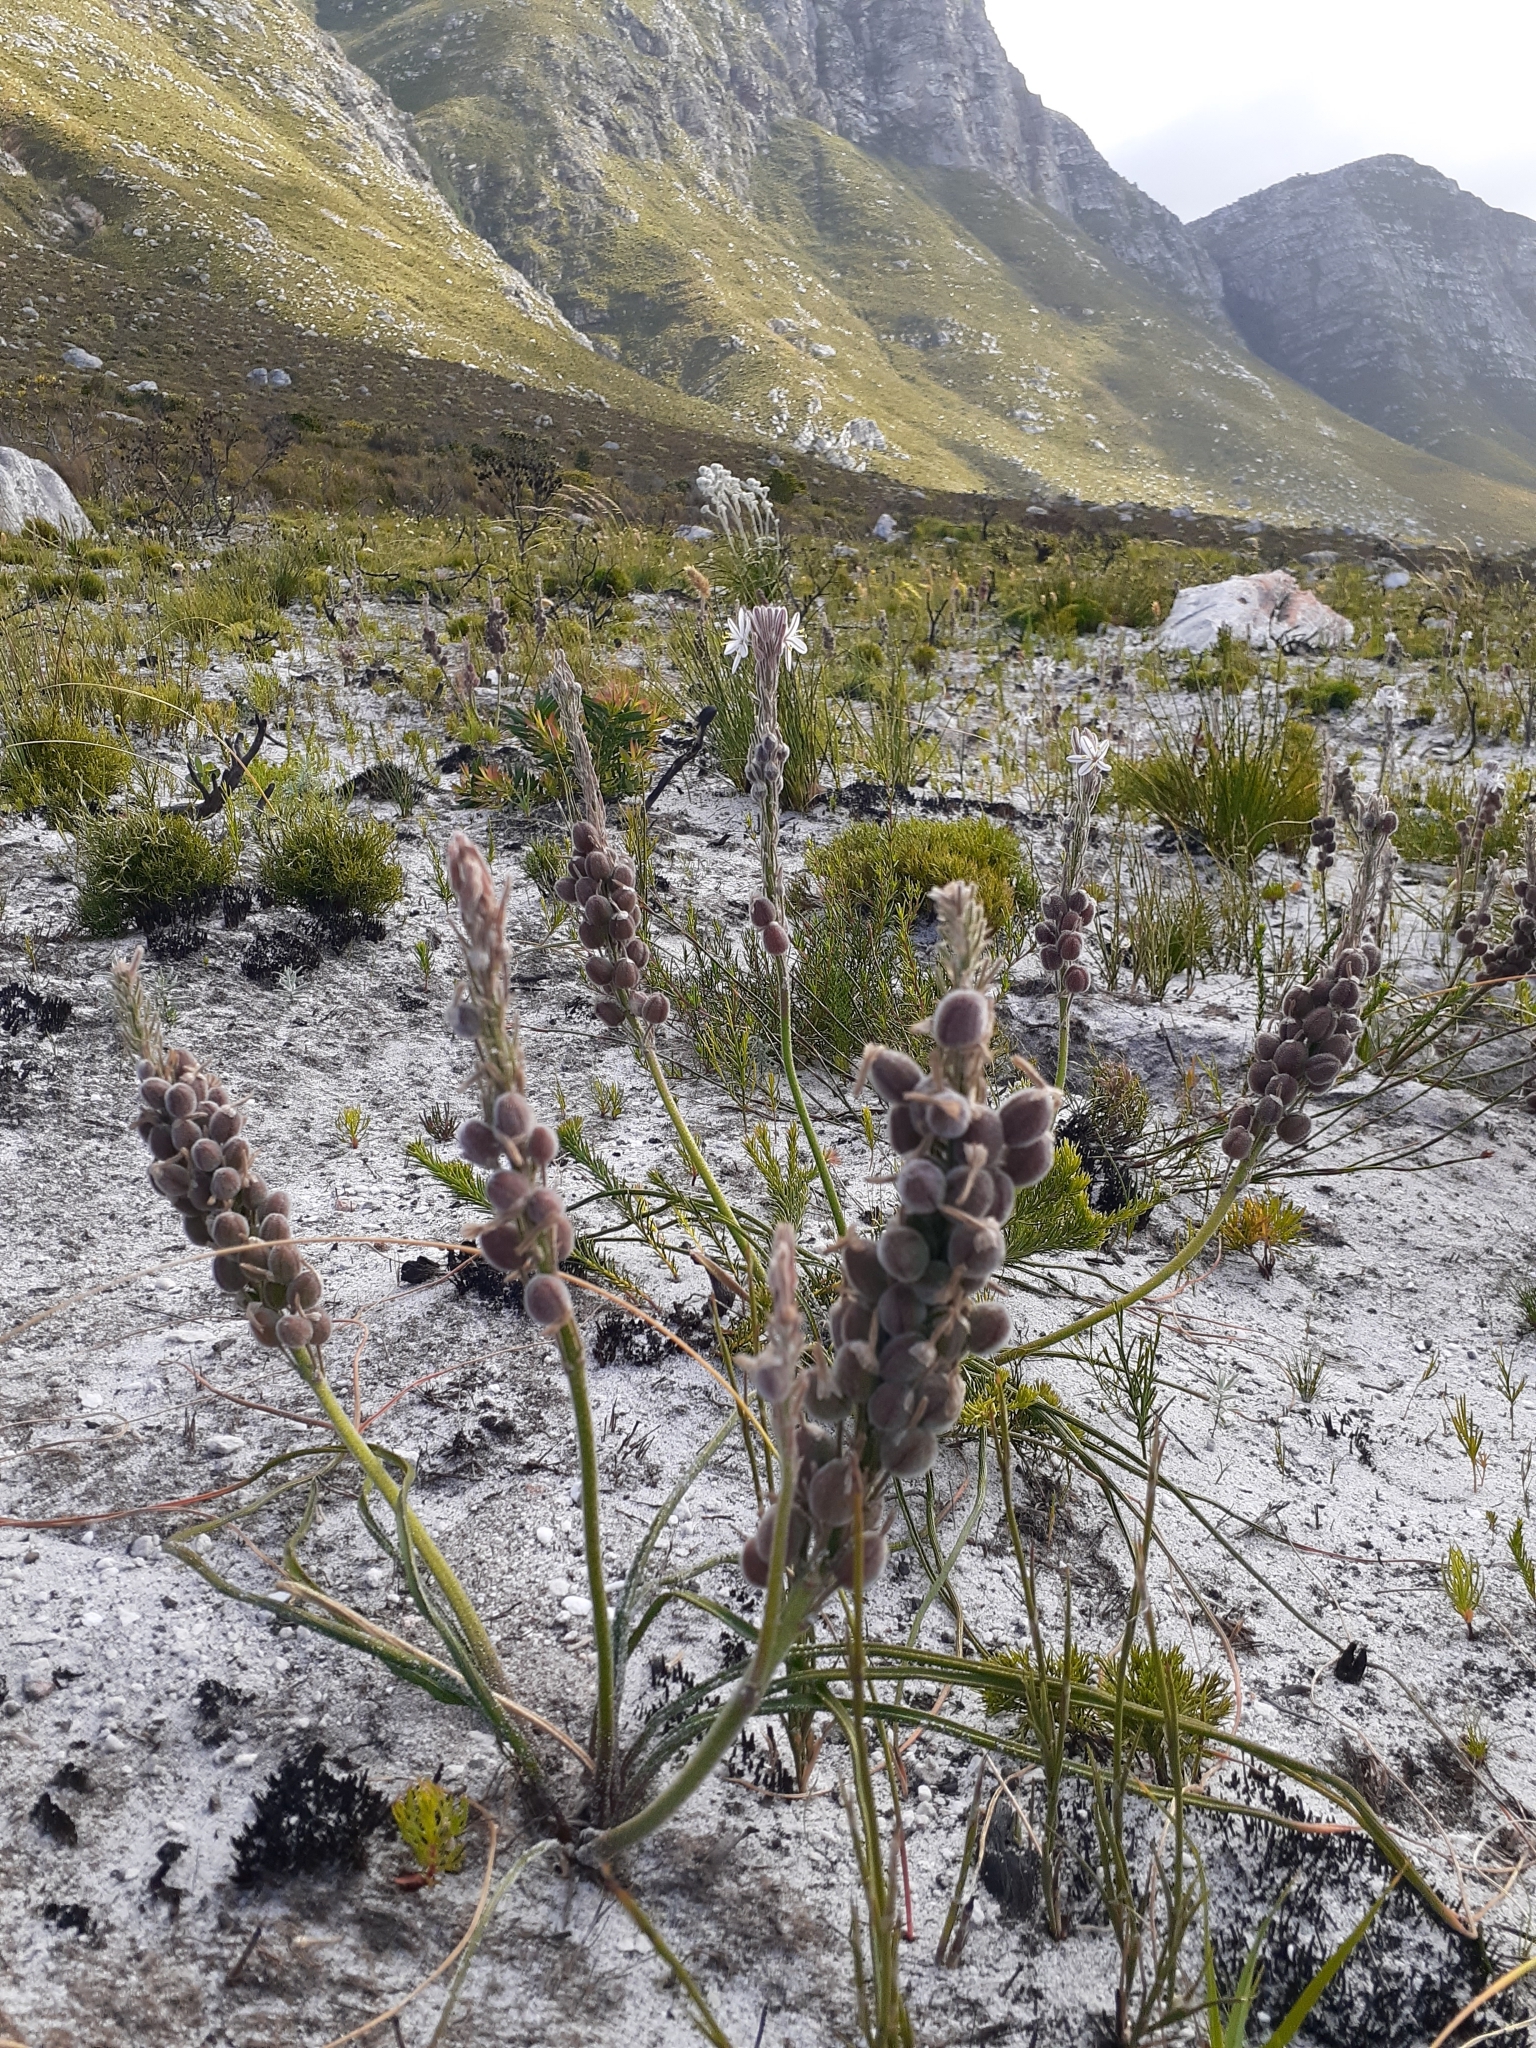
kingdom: Plantae
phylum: Tracheophyta
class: Liliopsida
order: Asparagales
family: Asphodelaceae
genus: Trachyandra
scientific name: Trachyandra hirsutiflora
